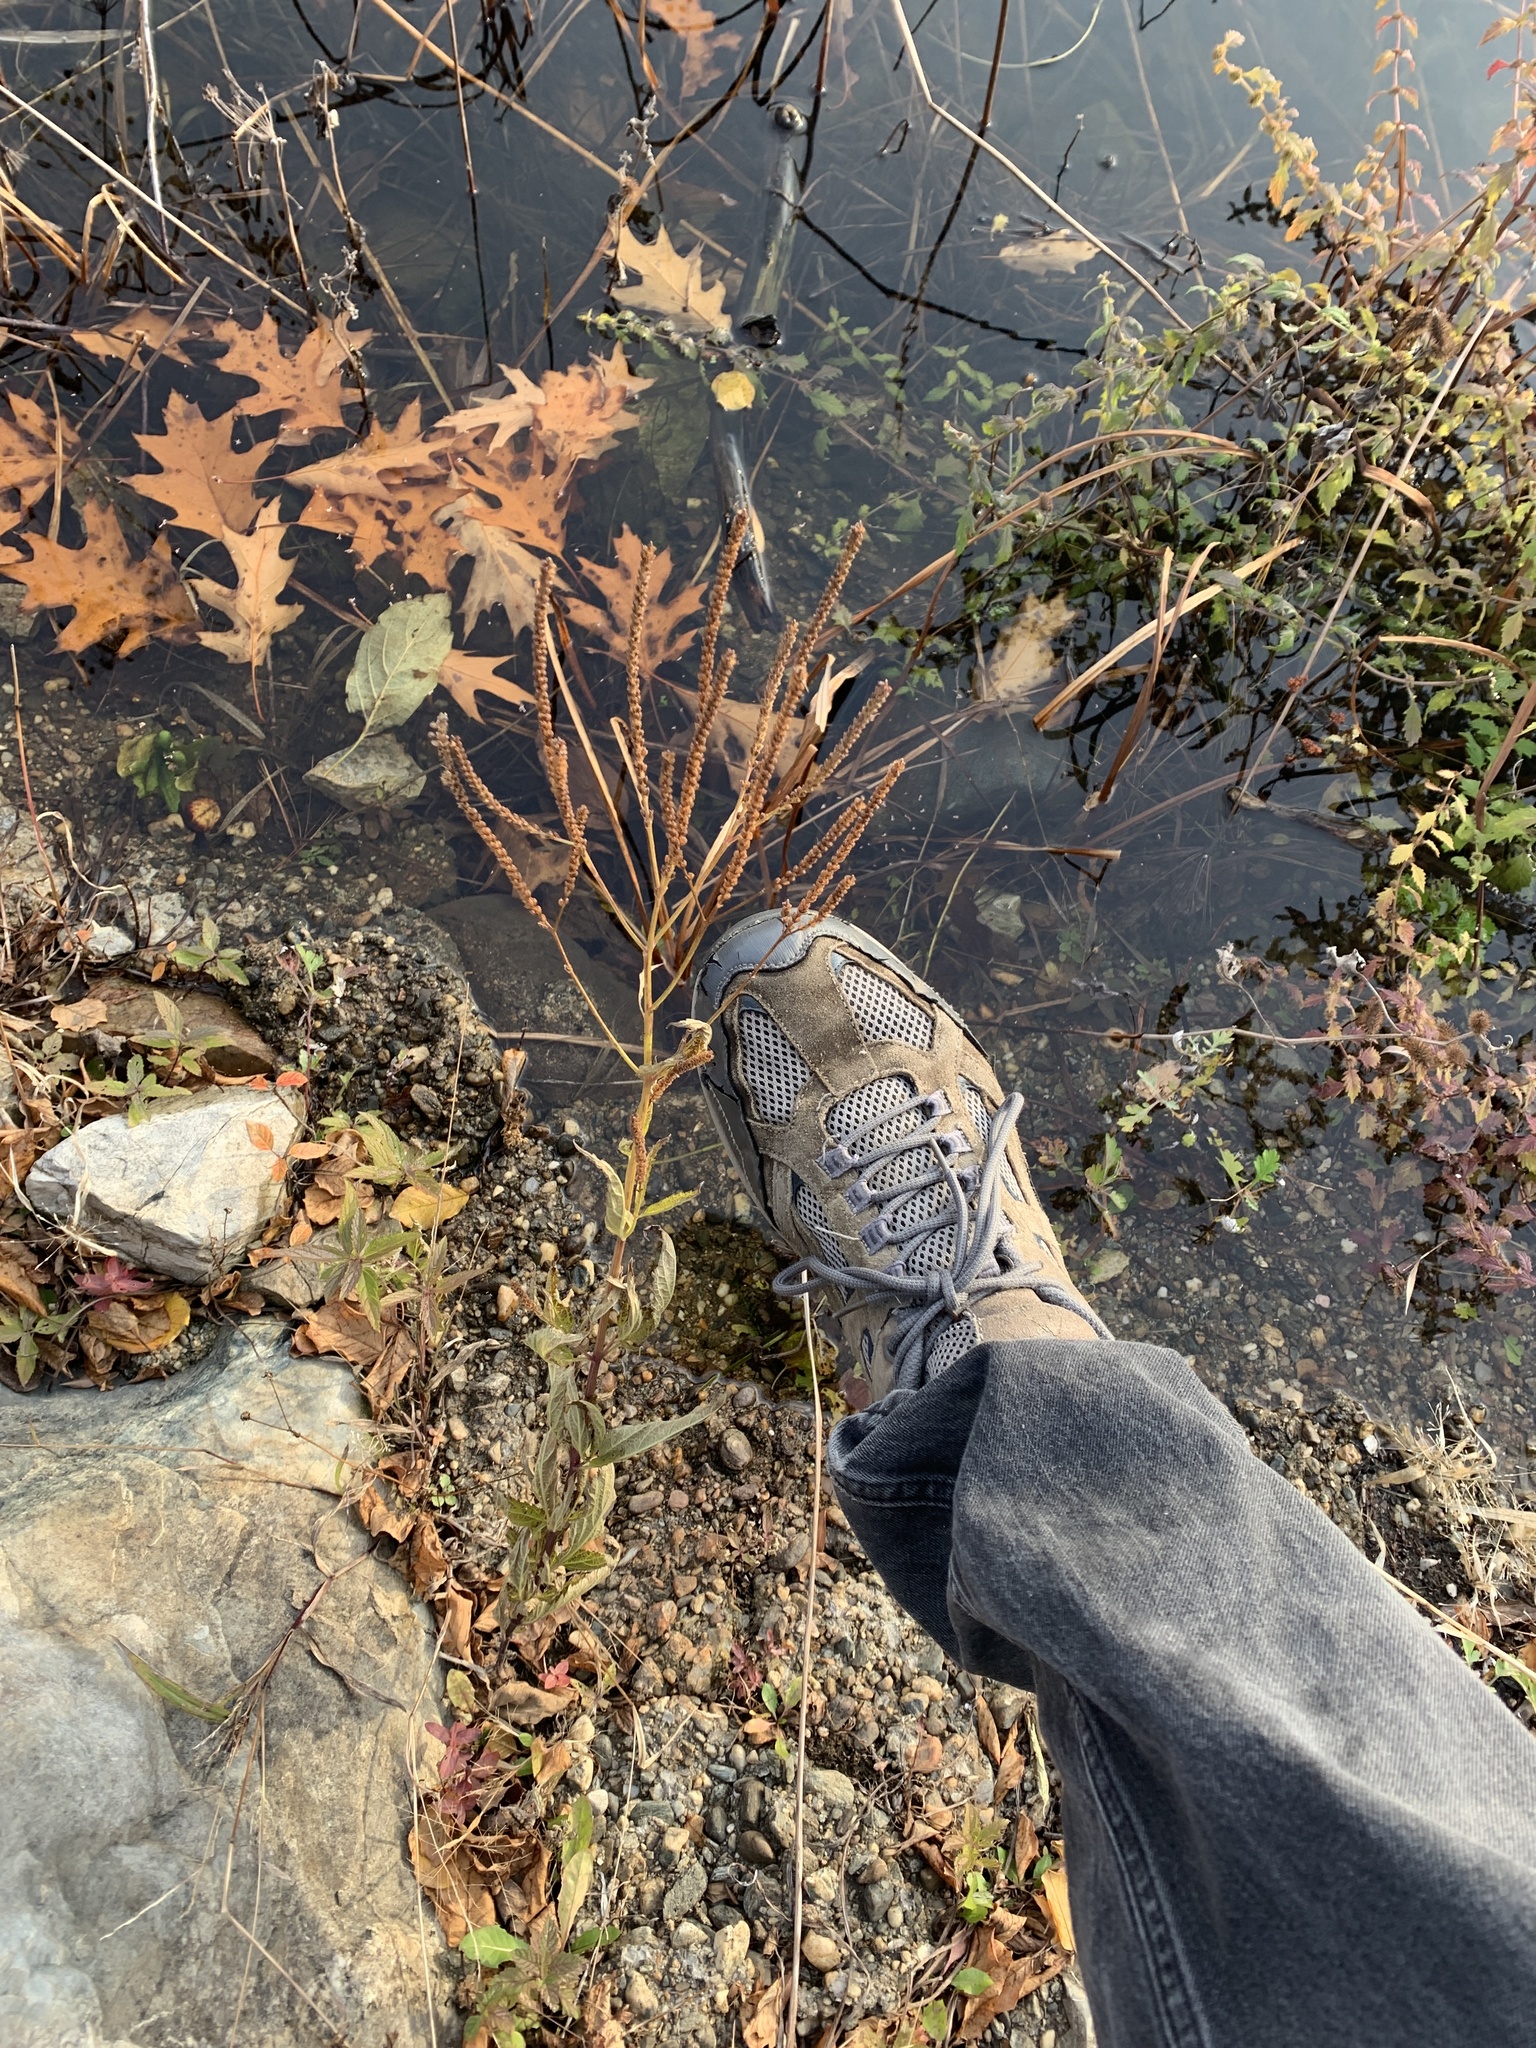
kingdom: Plantae
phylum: Tracheophyta
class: Magnoliopsida
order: Lamiales
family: Verbenaceae
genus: Verbena
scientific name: Verbena hastata
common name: American blue vervain
